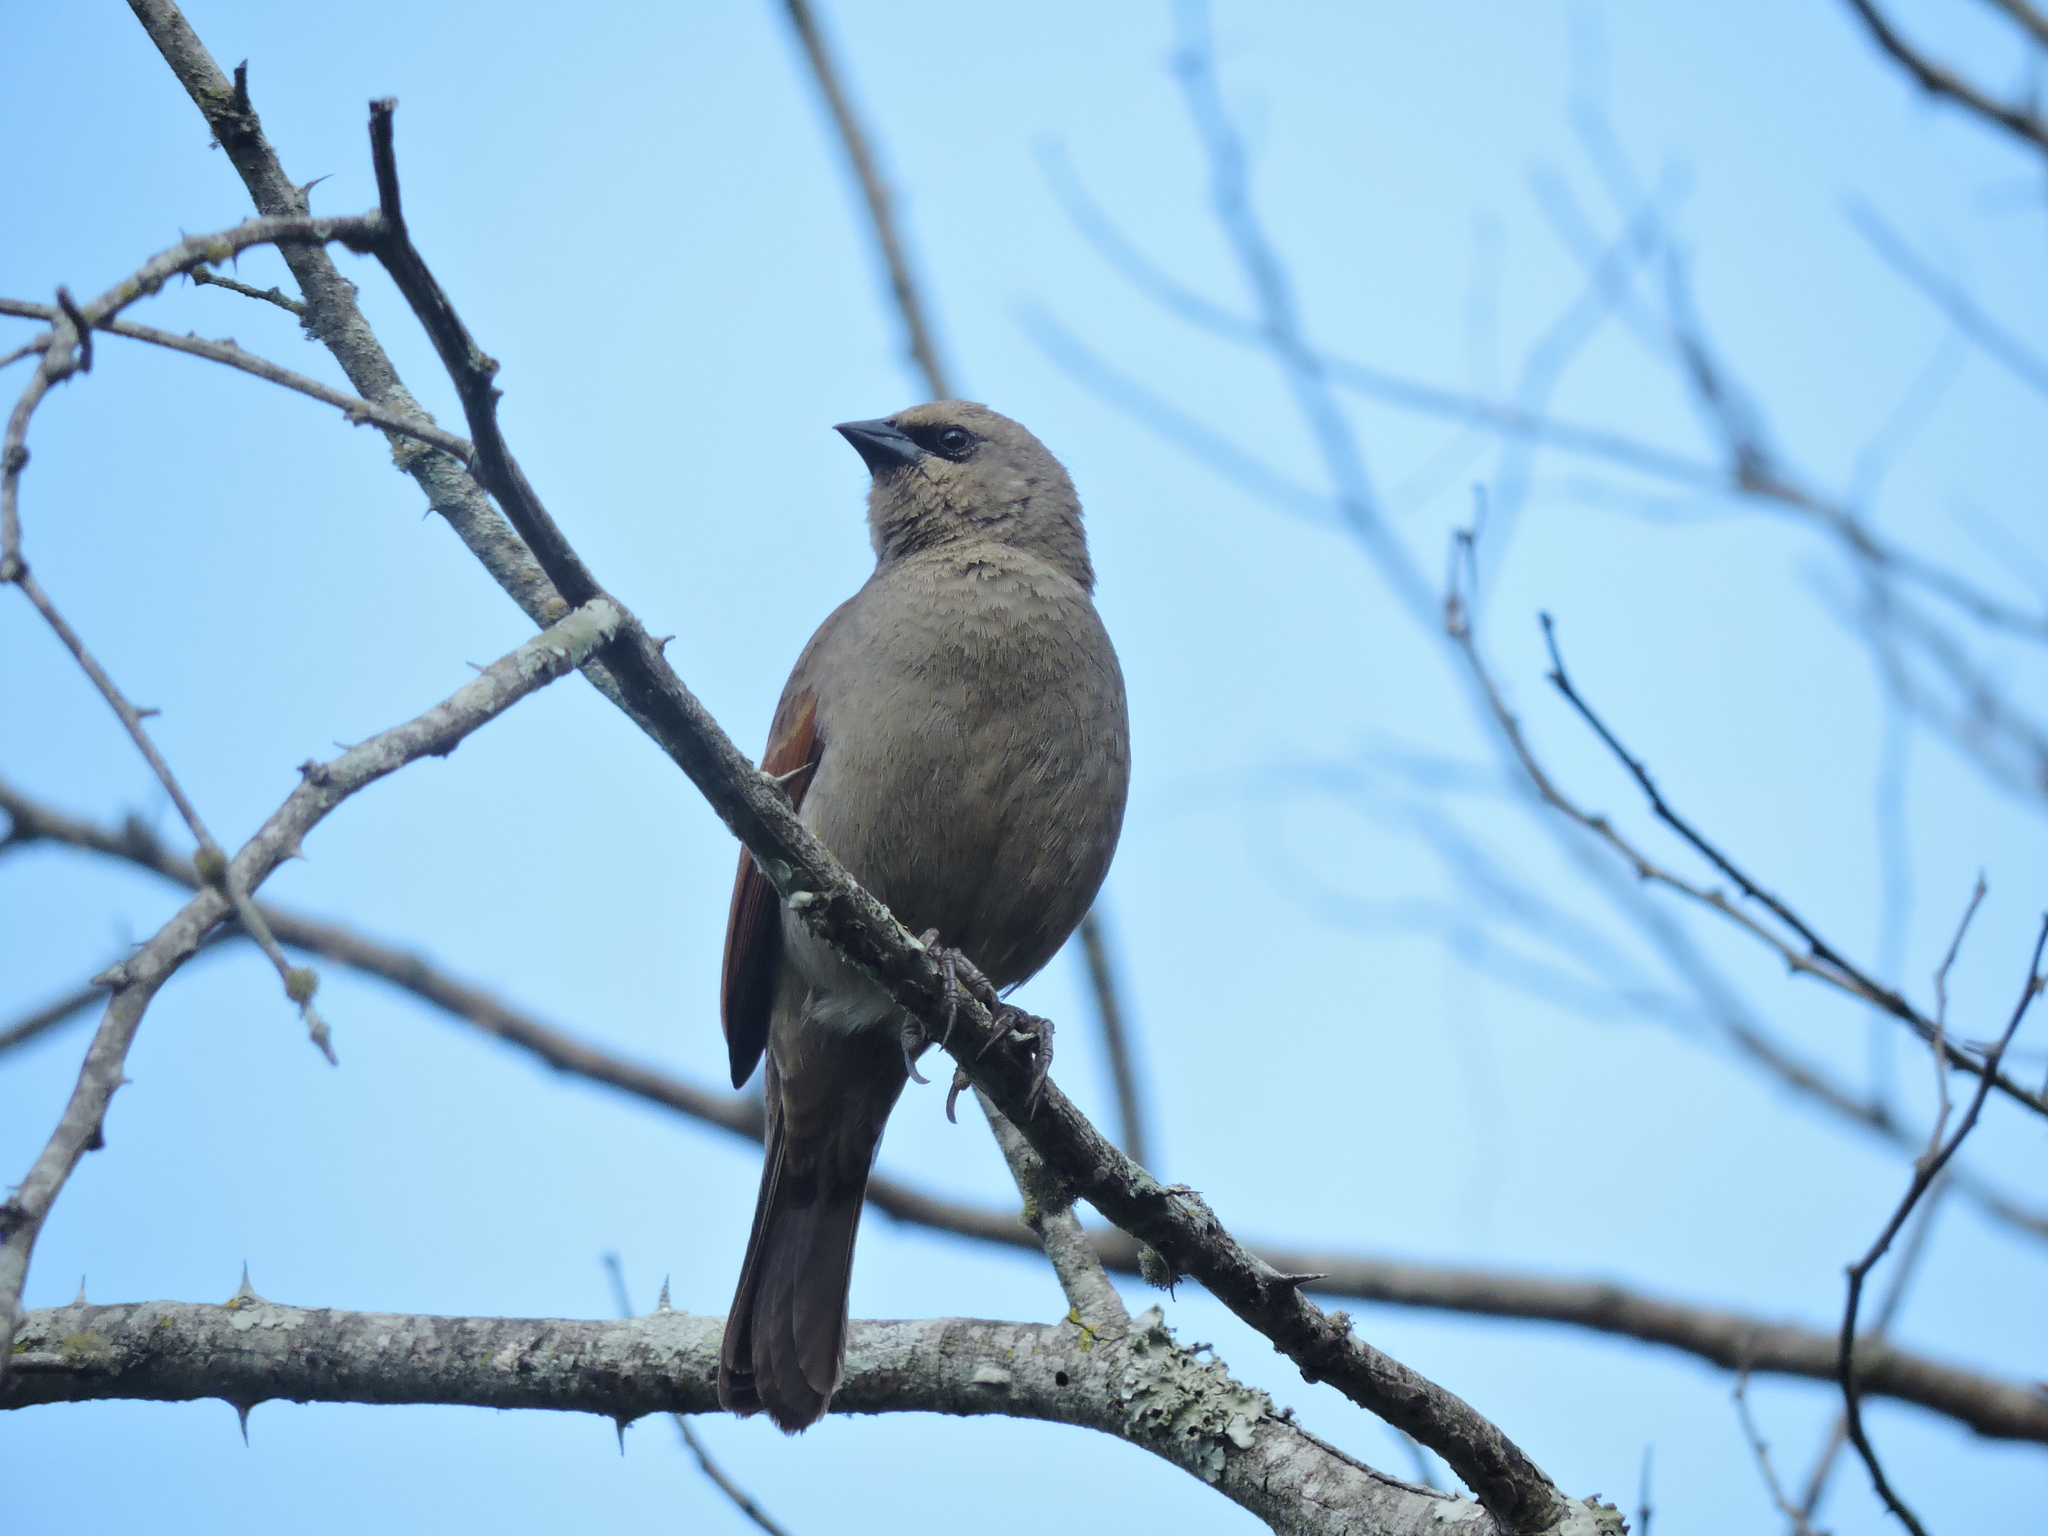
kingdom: Animalia
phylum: Chordata
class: Aves
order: Passeriformes
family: Icteridae
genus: Agelaioides
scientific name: Agelaioides badius
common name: Baywing
